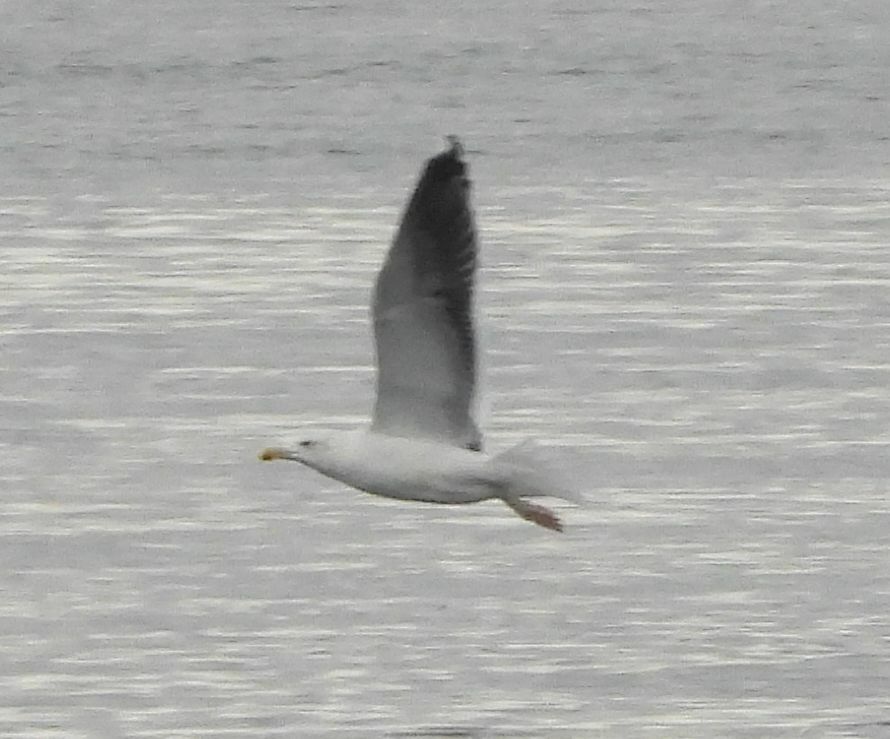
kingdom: Animalia
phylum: Chordata
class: Aves
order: Charadriiformes
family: Laridae
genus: Larus
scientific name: Larus marinus
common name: Great black-backed gull
